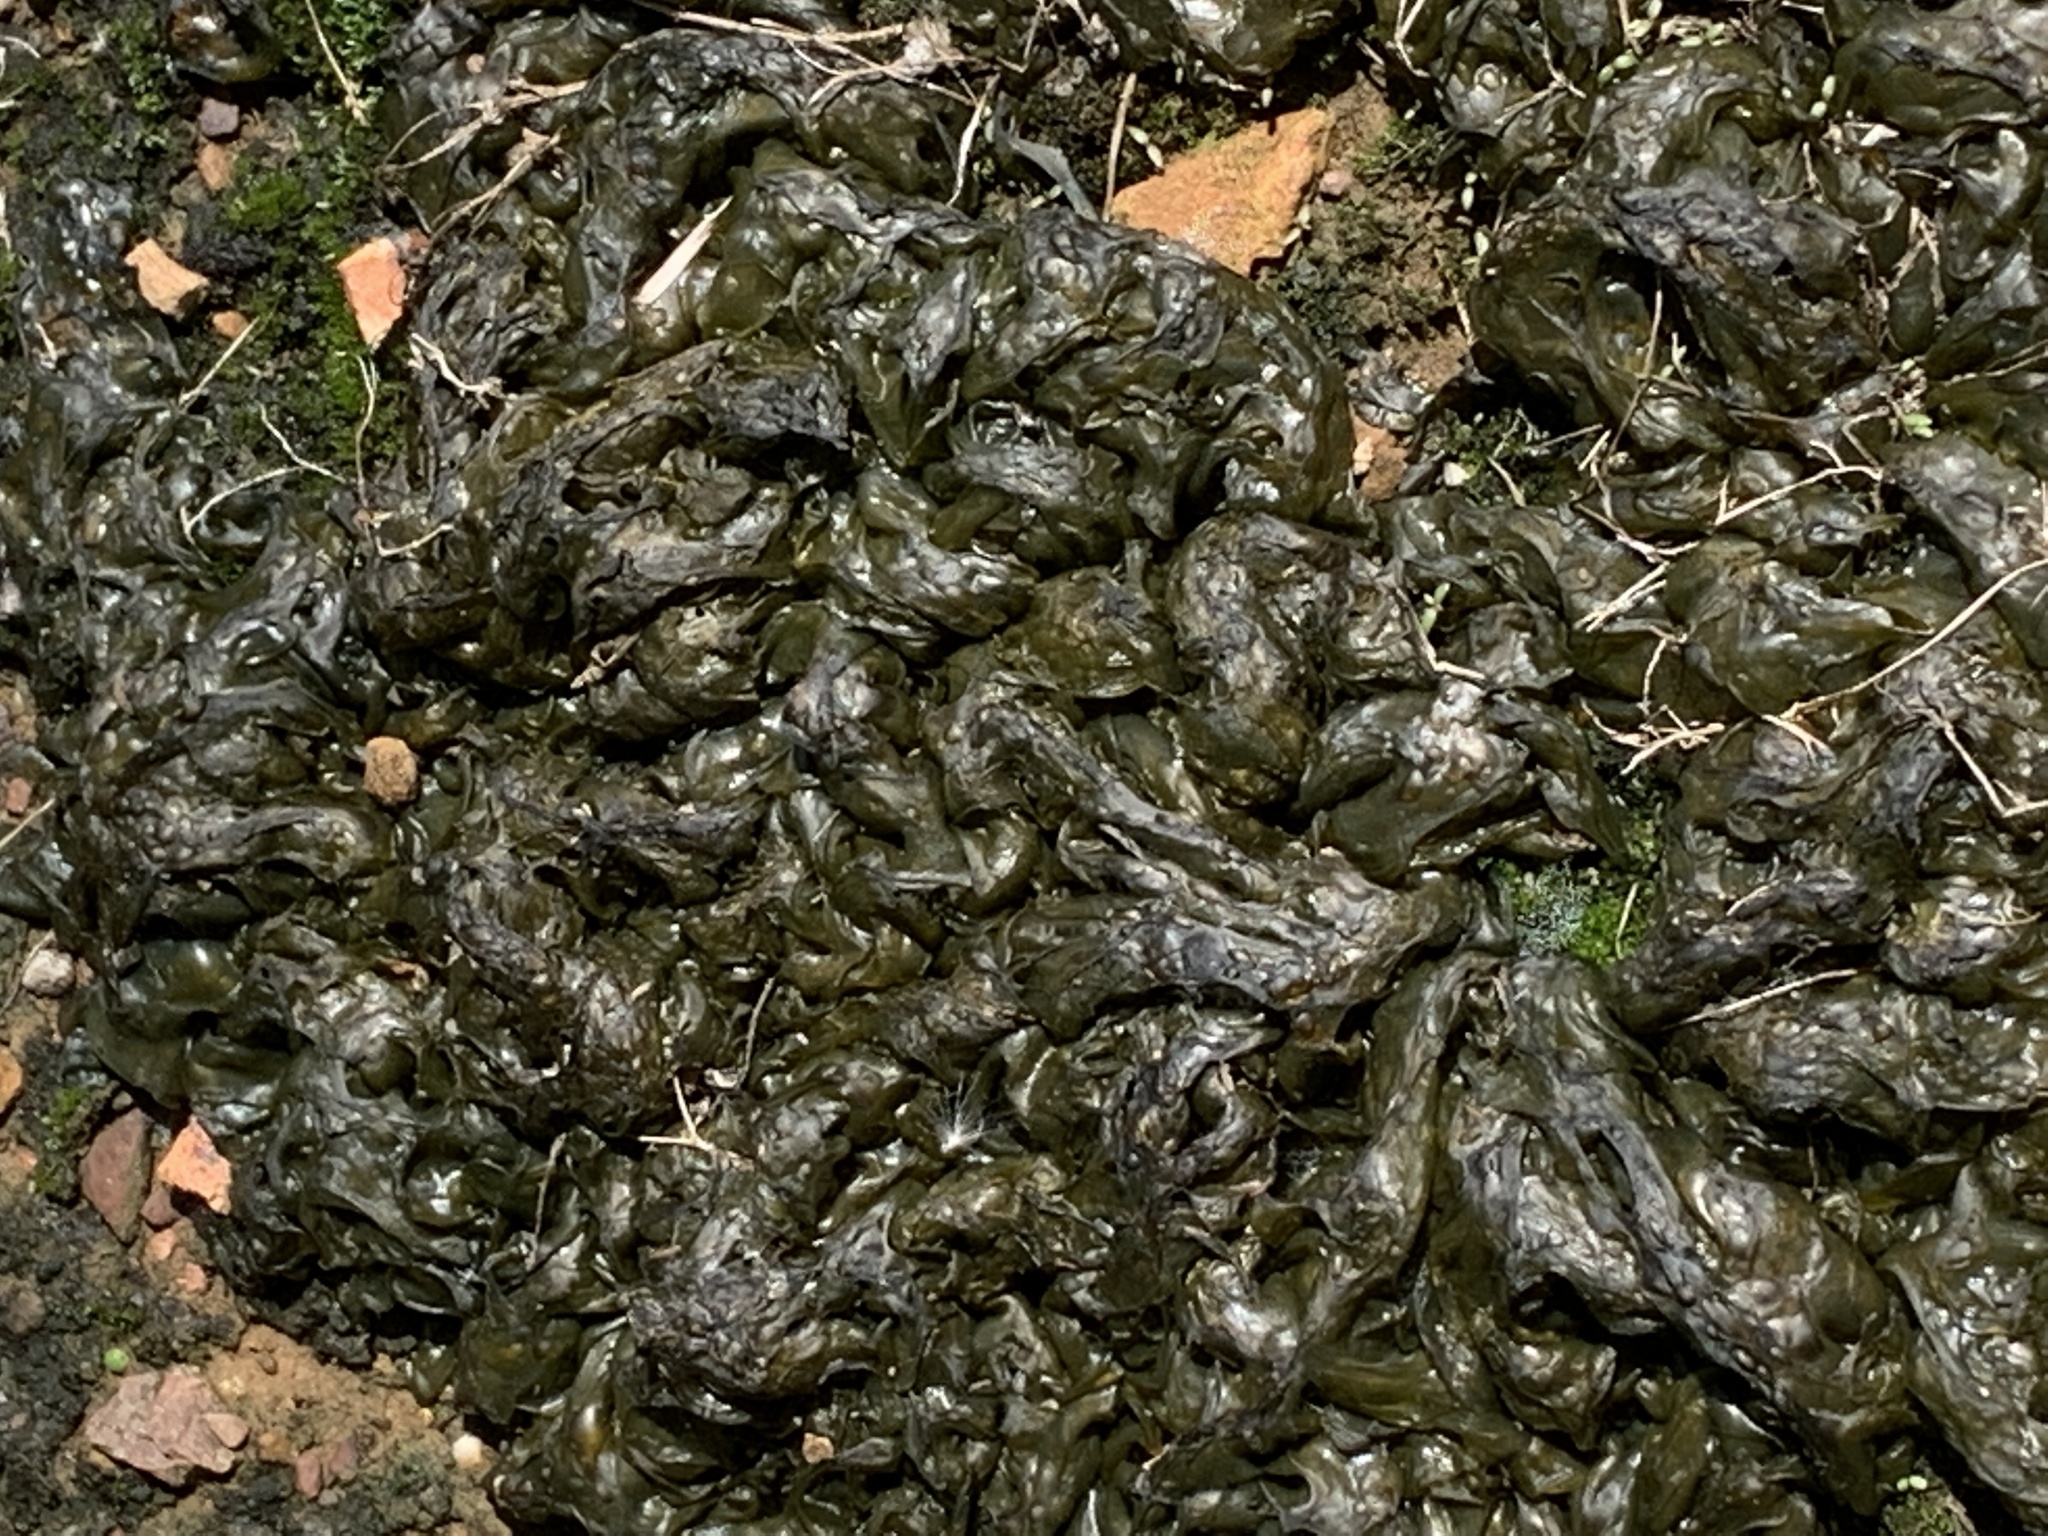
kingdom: Bacteria
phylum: Cyanobacteria
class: Cyanobacteriia
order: Cyanobacteriales
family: Nostocaceae
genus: Nostoc
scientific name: Nostoc commune
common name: Star jelly
